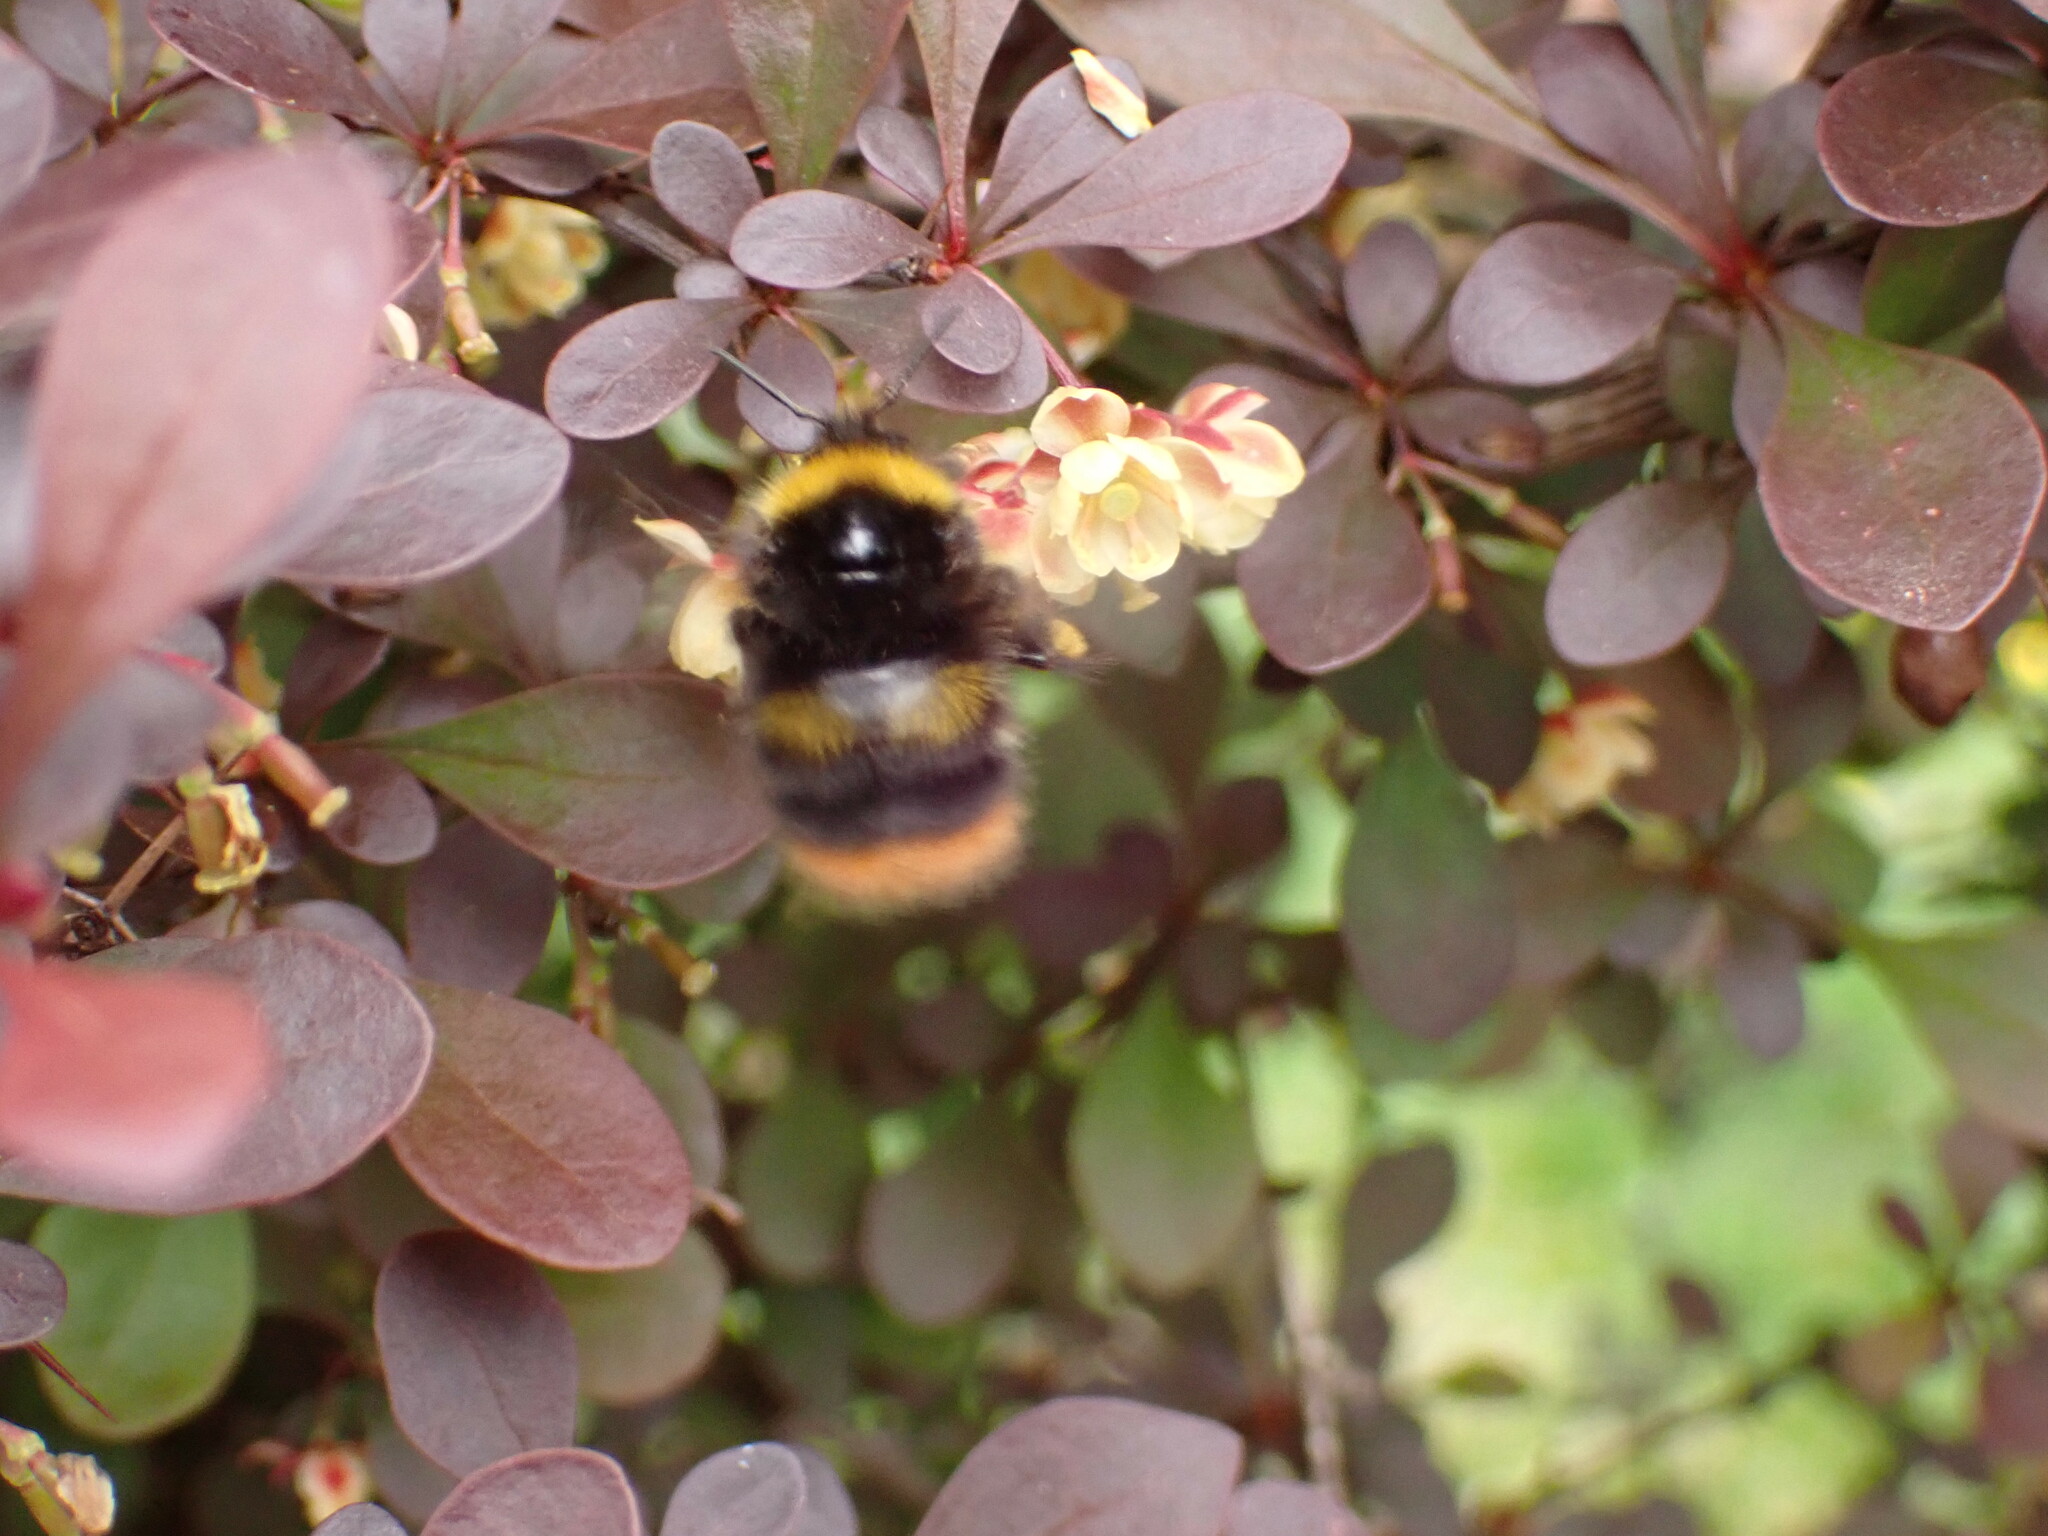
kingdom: Animalia
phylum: Arthropoda
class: Insecta
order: Hymenoptera
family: Apidae
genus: Bombus
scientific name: Bombus pratorum
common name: Early humble-bee
